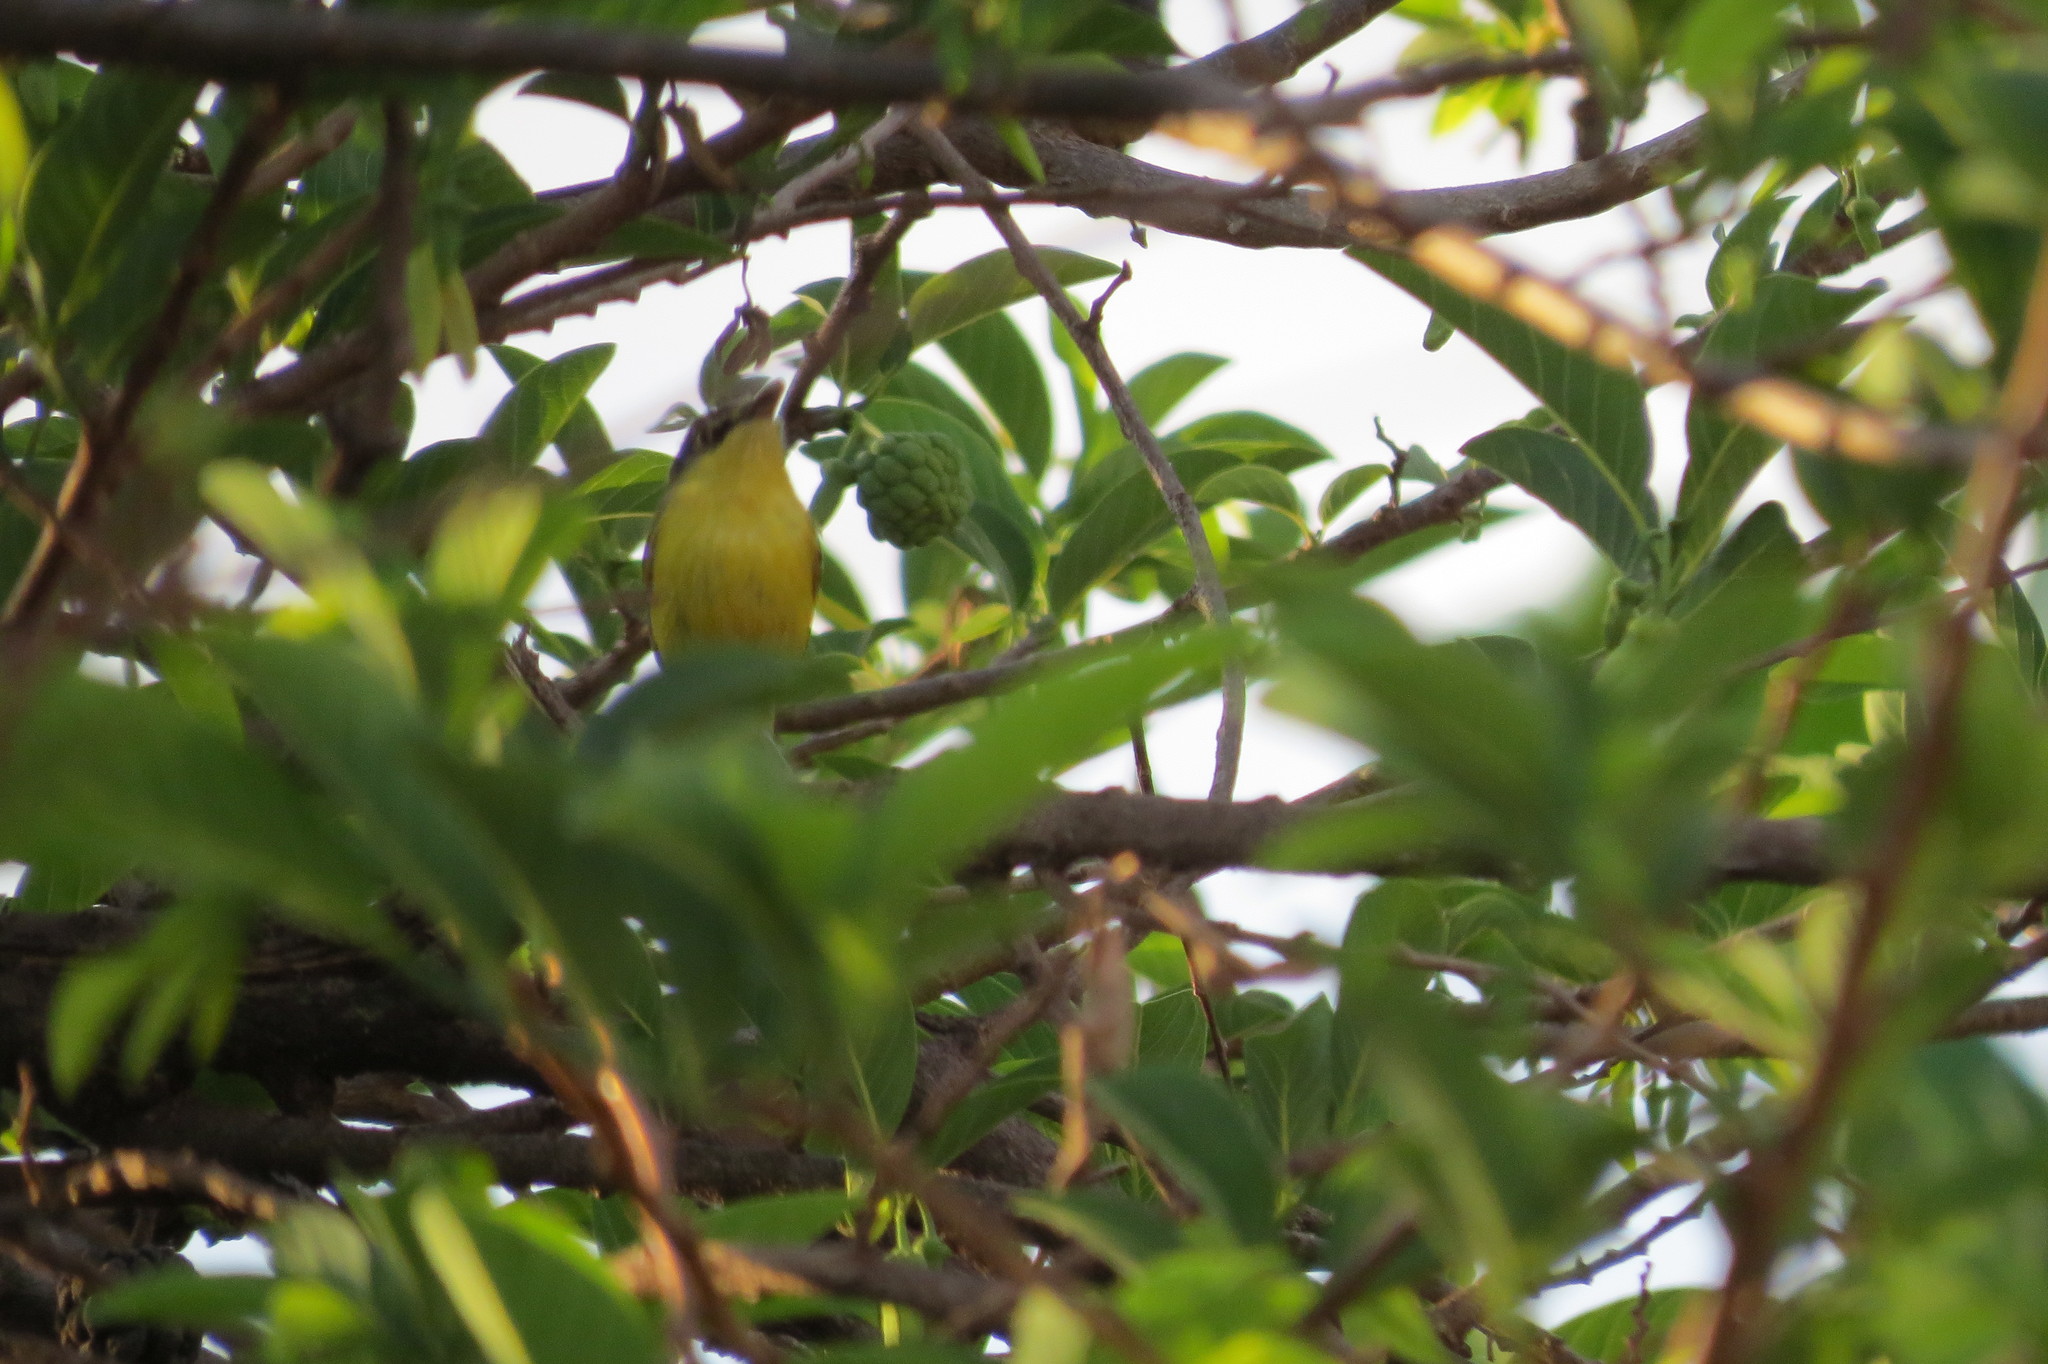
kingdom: Animalia
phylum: Chordata
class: Aves
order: Passeriformes
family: Tyrannidae
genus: Todirostrum
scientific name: Todirostrum cinereum
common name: Common tody-flycatcher
